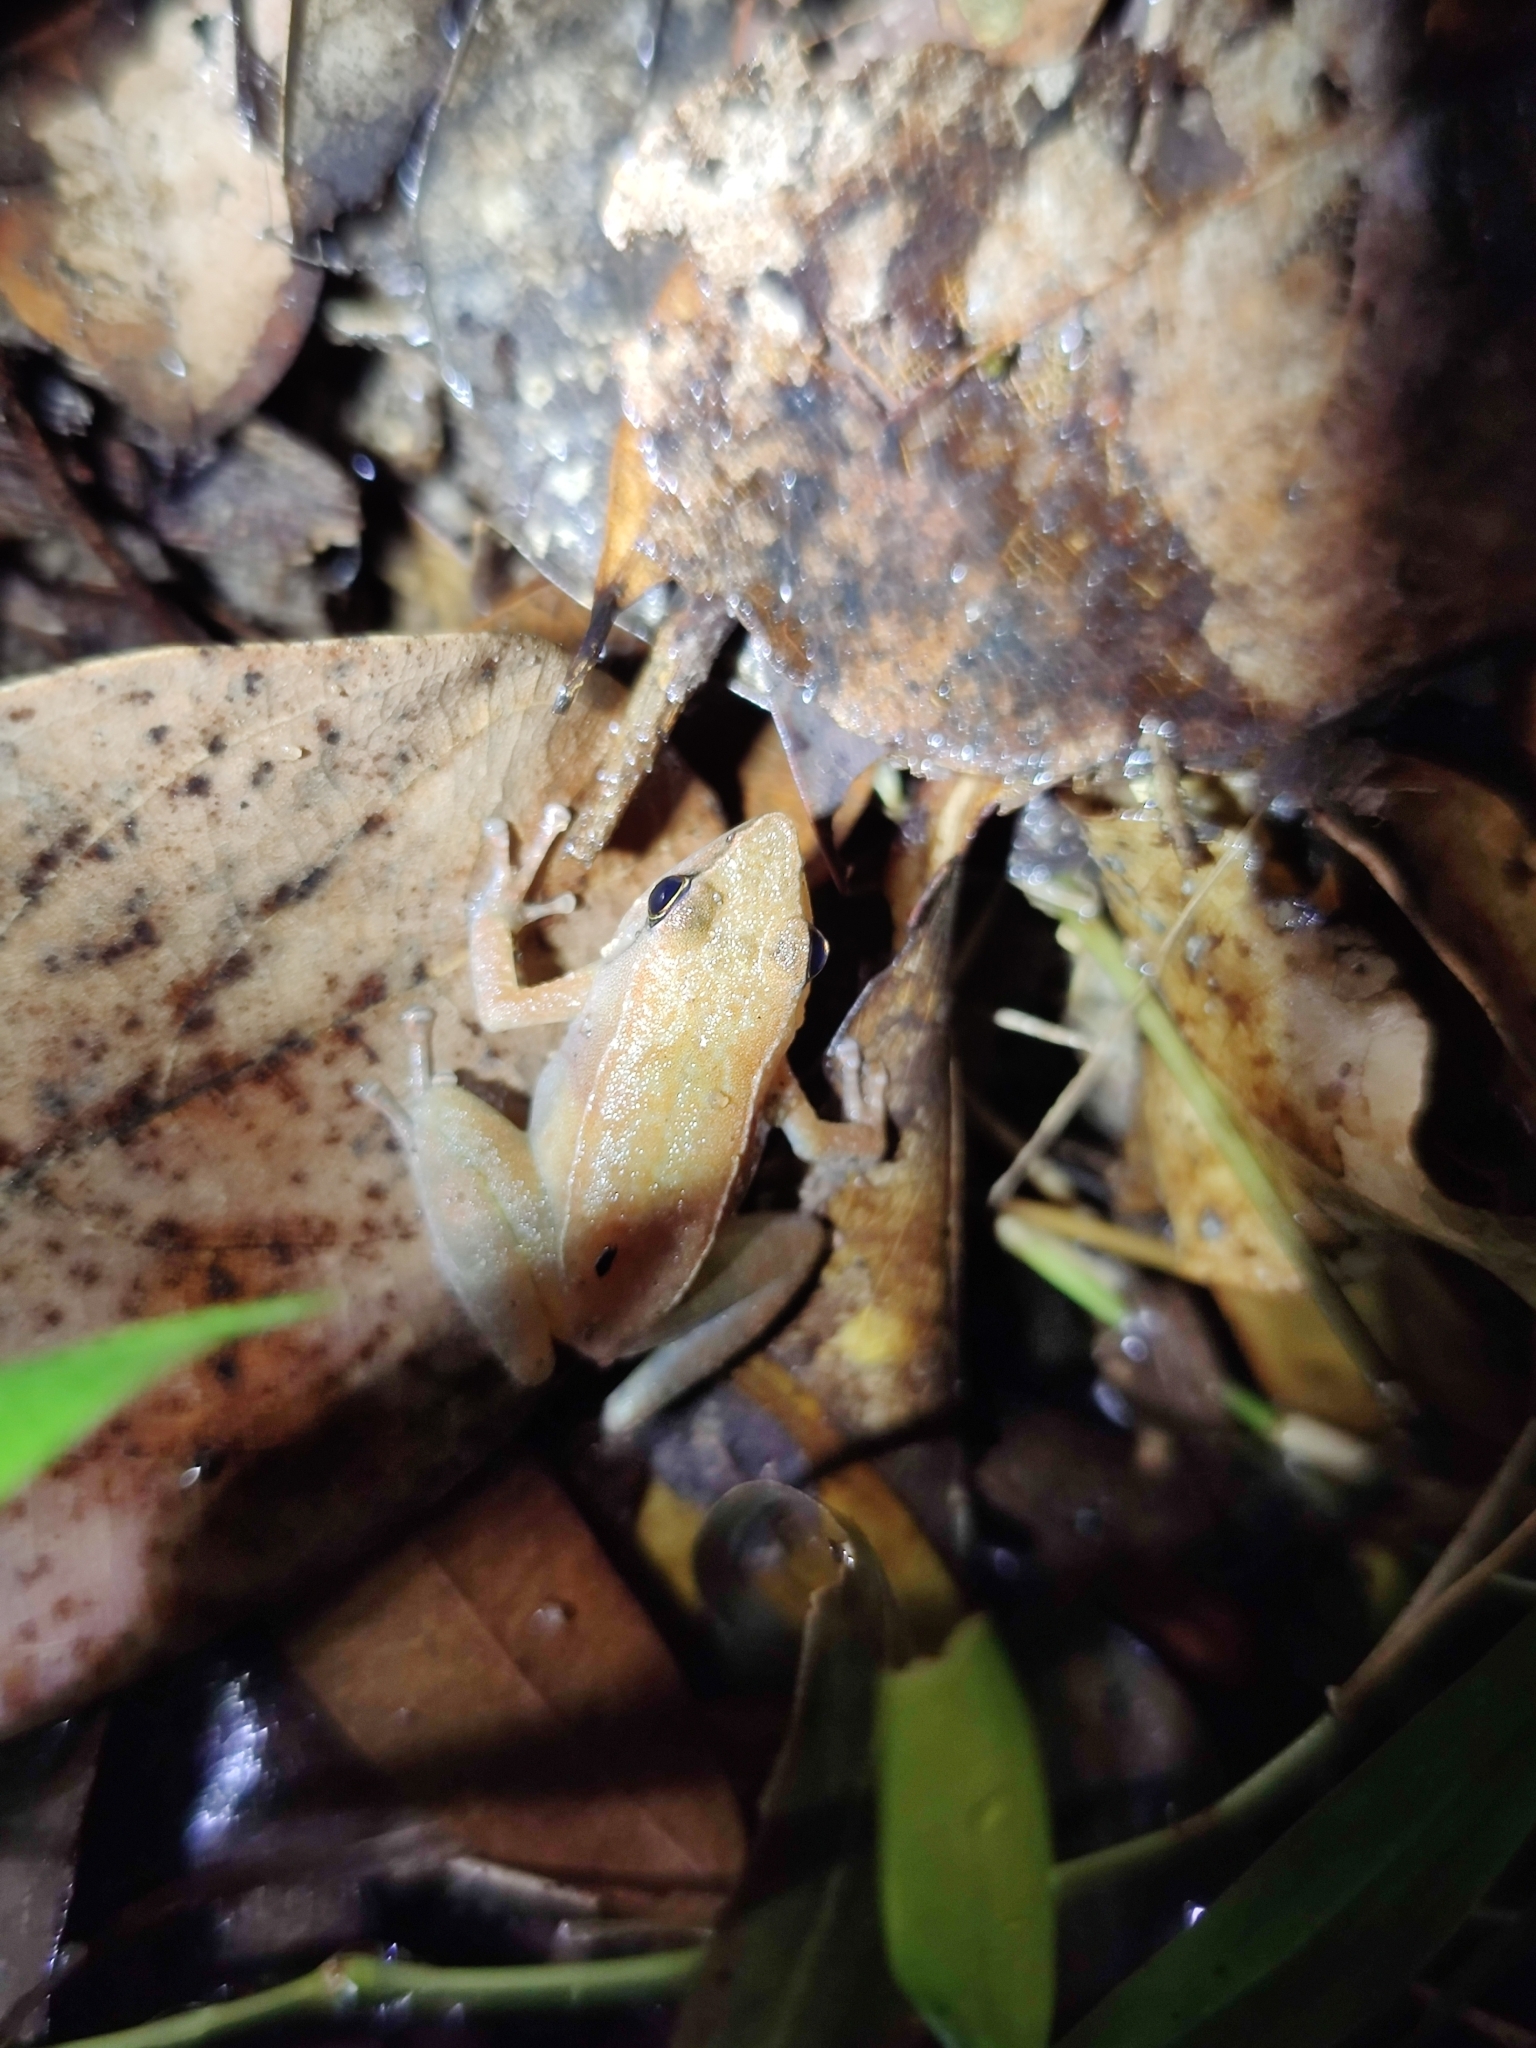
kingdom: Animalia
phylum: Chordata
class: Amphibia
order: Anura
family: Micrixalidae
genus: Micrixalus
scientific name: Micrixalus kodayari
